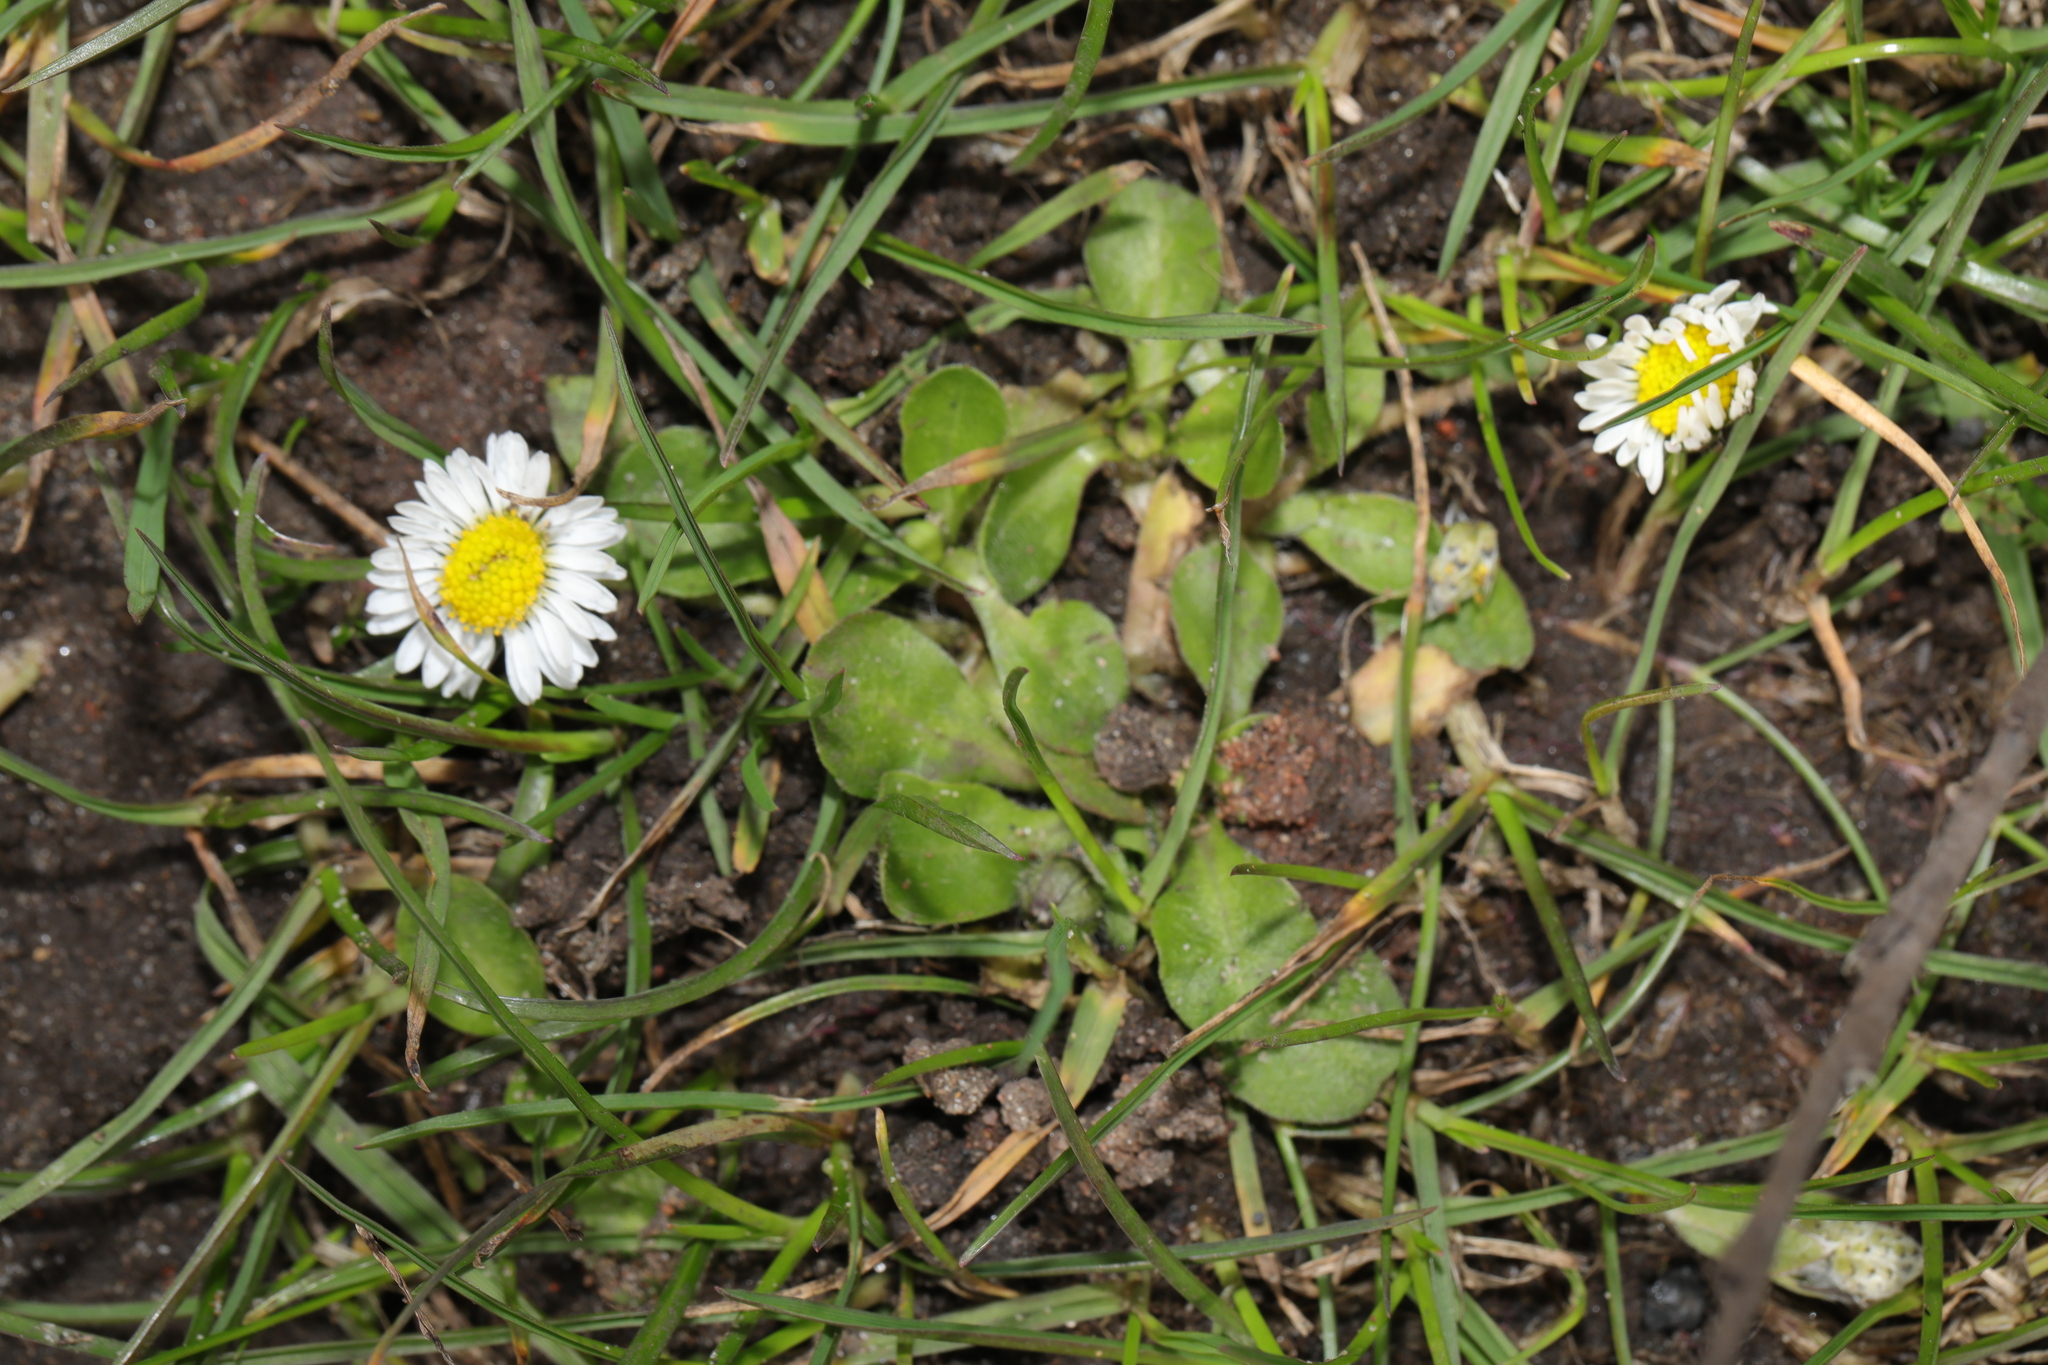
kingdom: Plantae
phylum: Tracheophyta
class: Magnoliopsida
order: Asterales
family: Asteraceae
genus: Bellis
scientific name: Bellis perennis
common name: Lawndaisy
